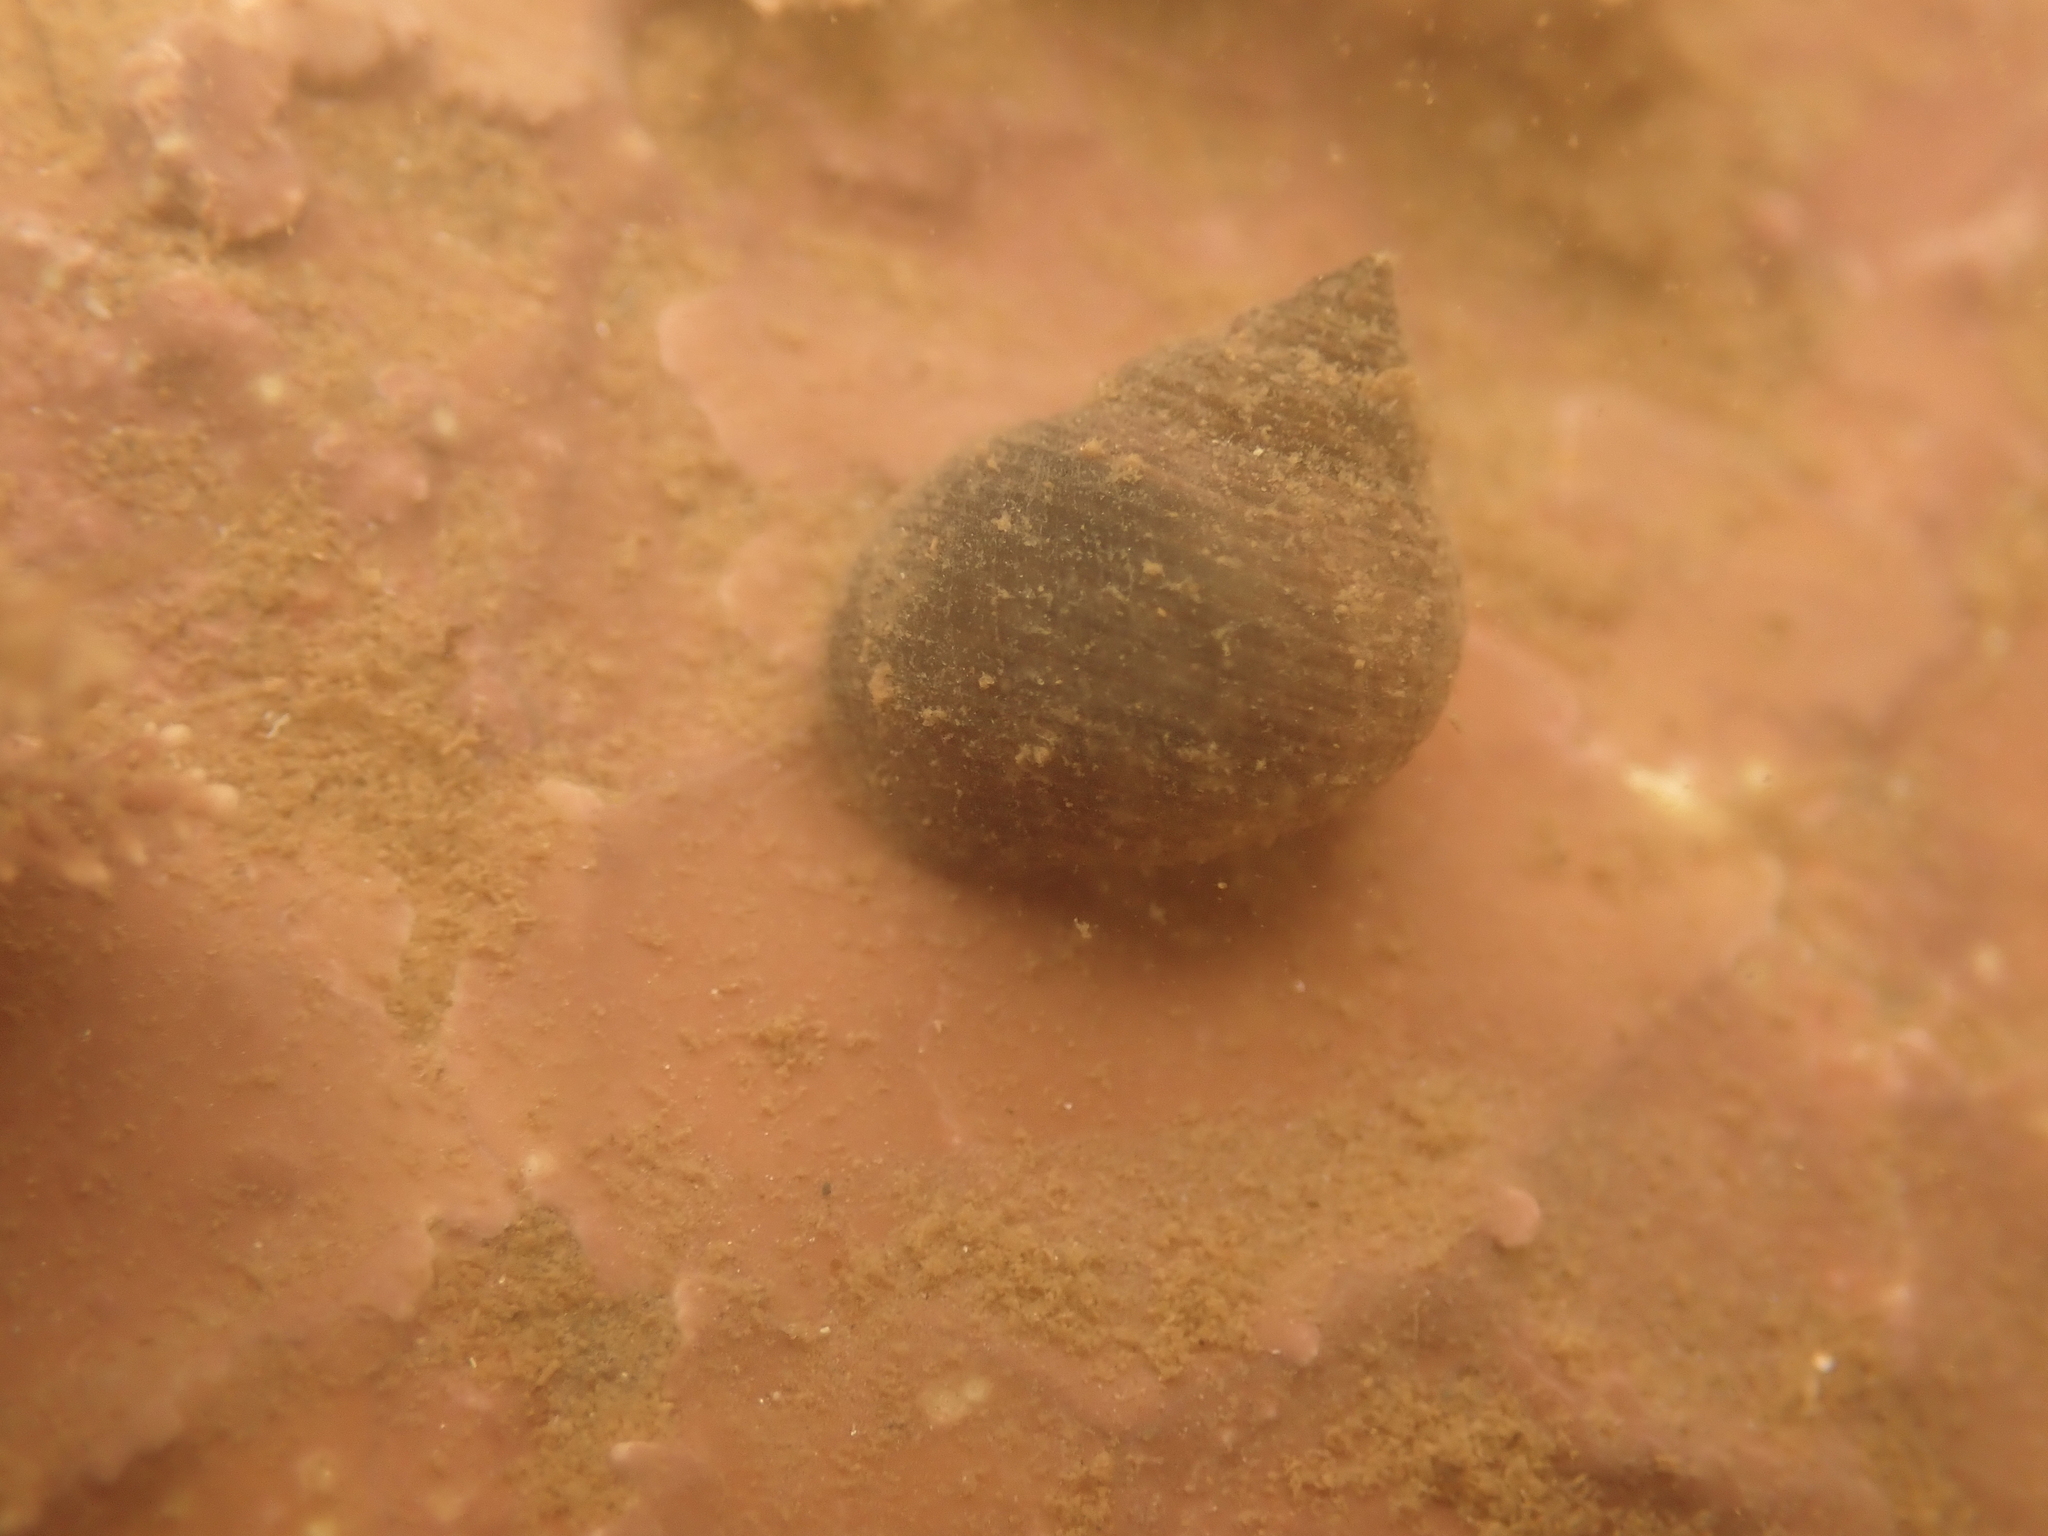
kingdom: Animalia
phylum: Mollusca
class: Gastropoda
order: Littorinimorpha
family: Littorinidae
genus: Littorina
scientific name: Littorina littorea
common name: Common periwinkle
